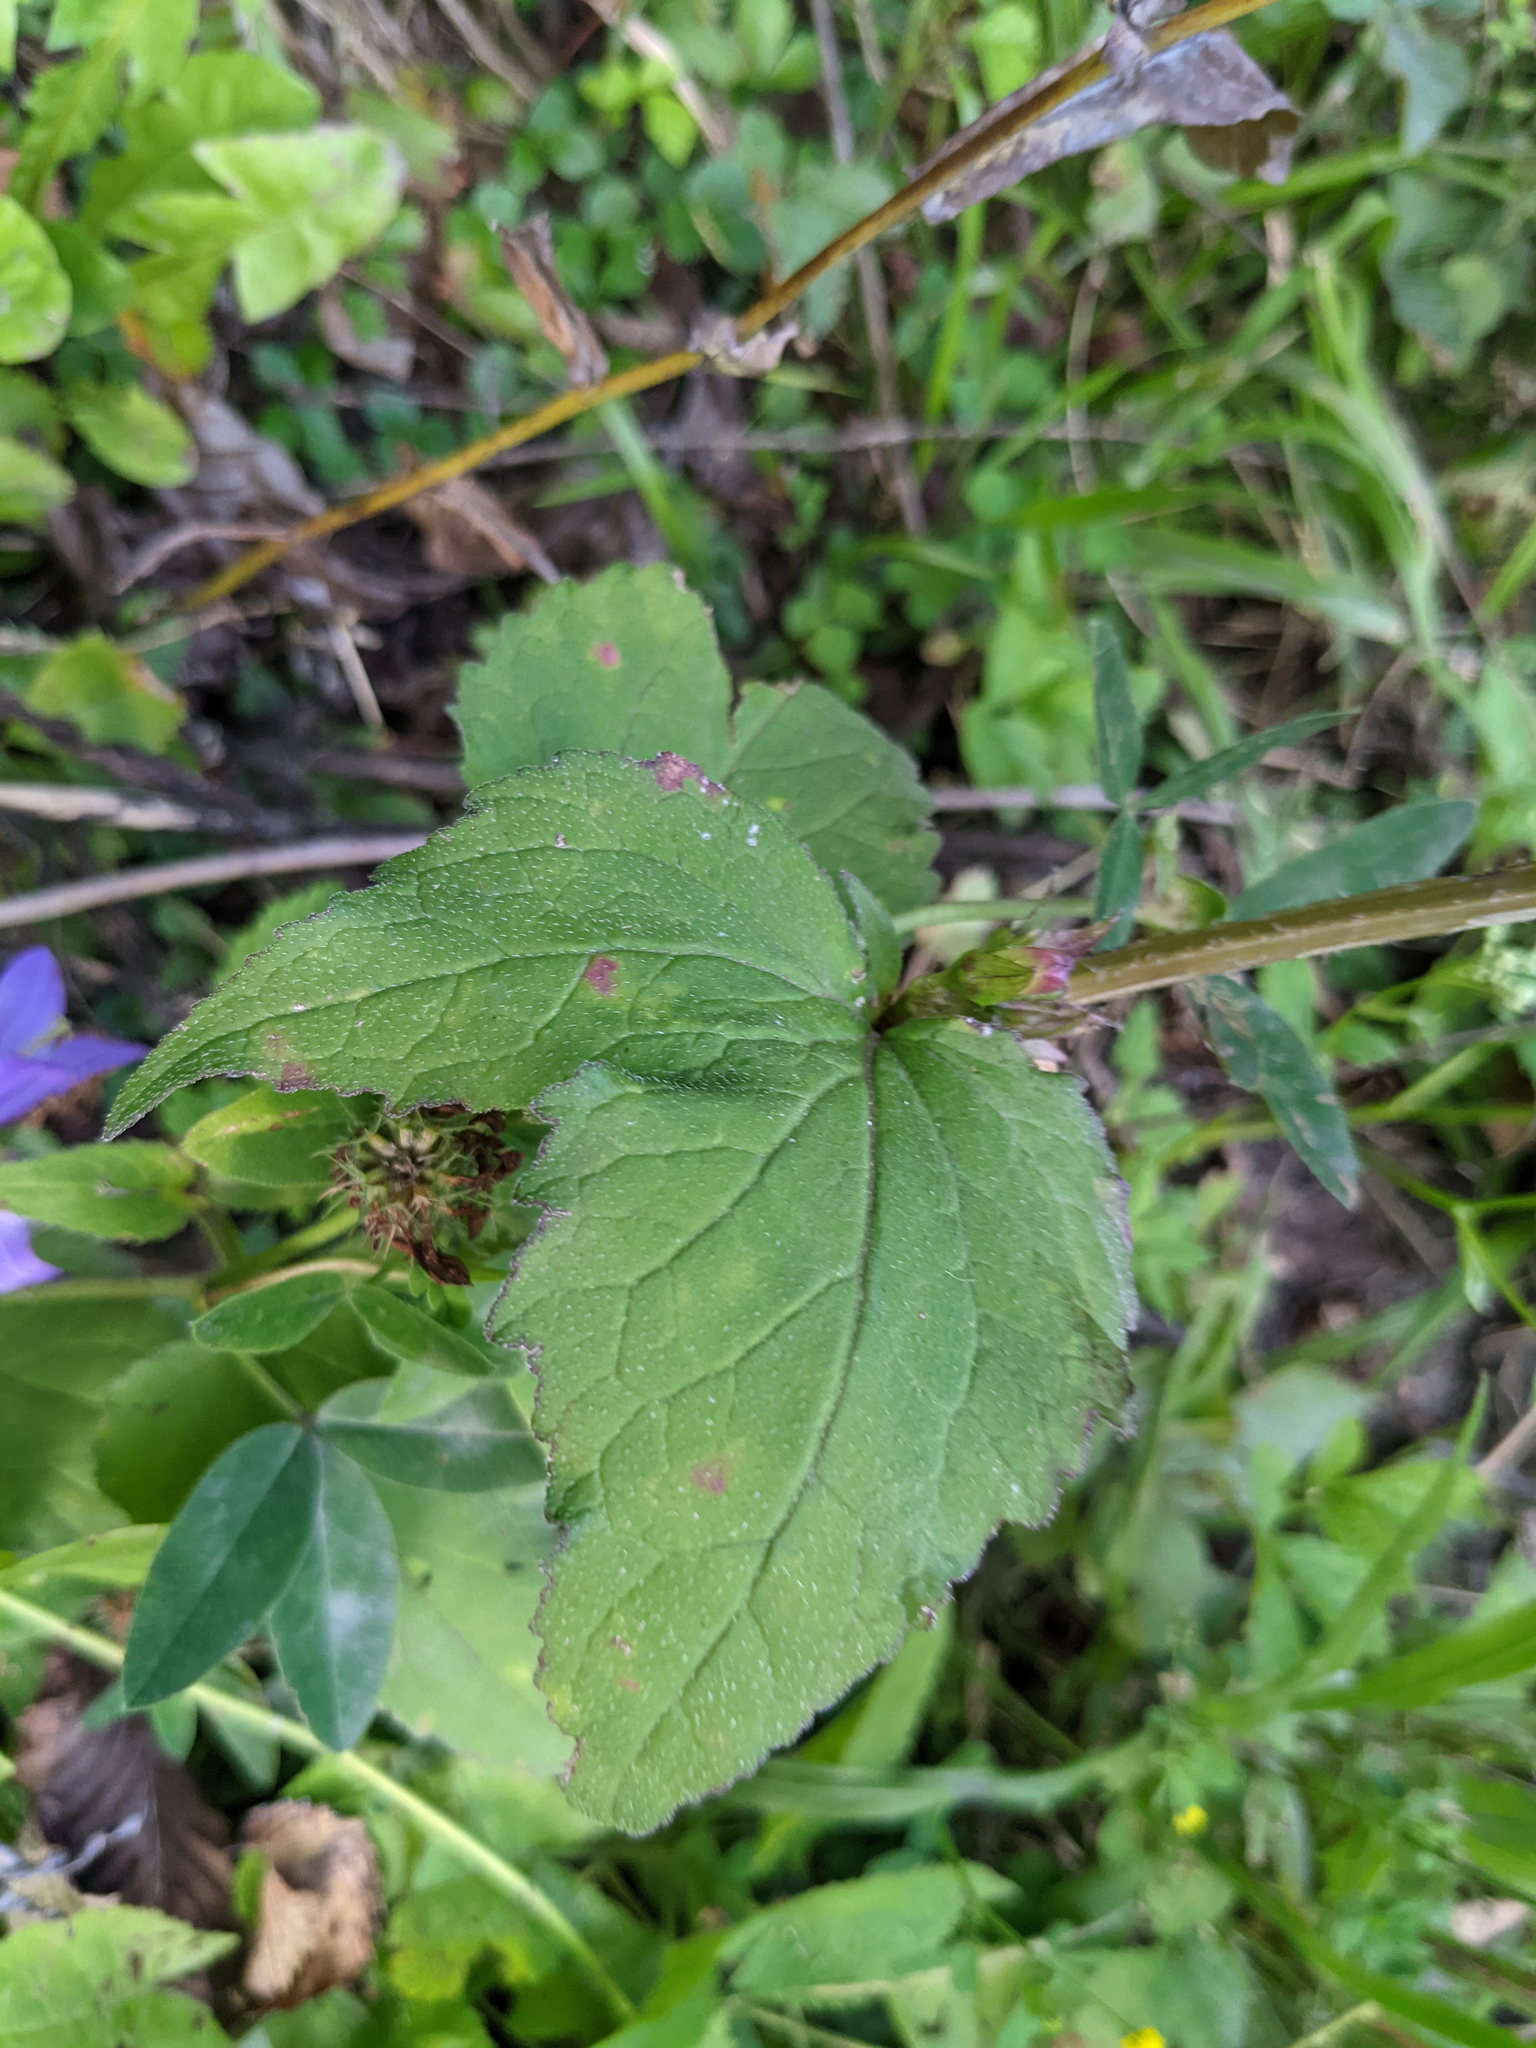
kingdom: Plantae
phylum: Tracheophyta
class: Magnoliopsida
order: Asterales
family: Campanulaceae
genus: Campanula
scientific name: Campanula trachelium
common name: Nettle-leaved bellflower
